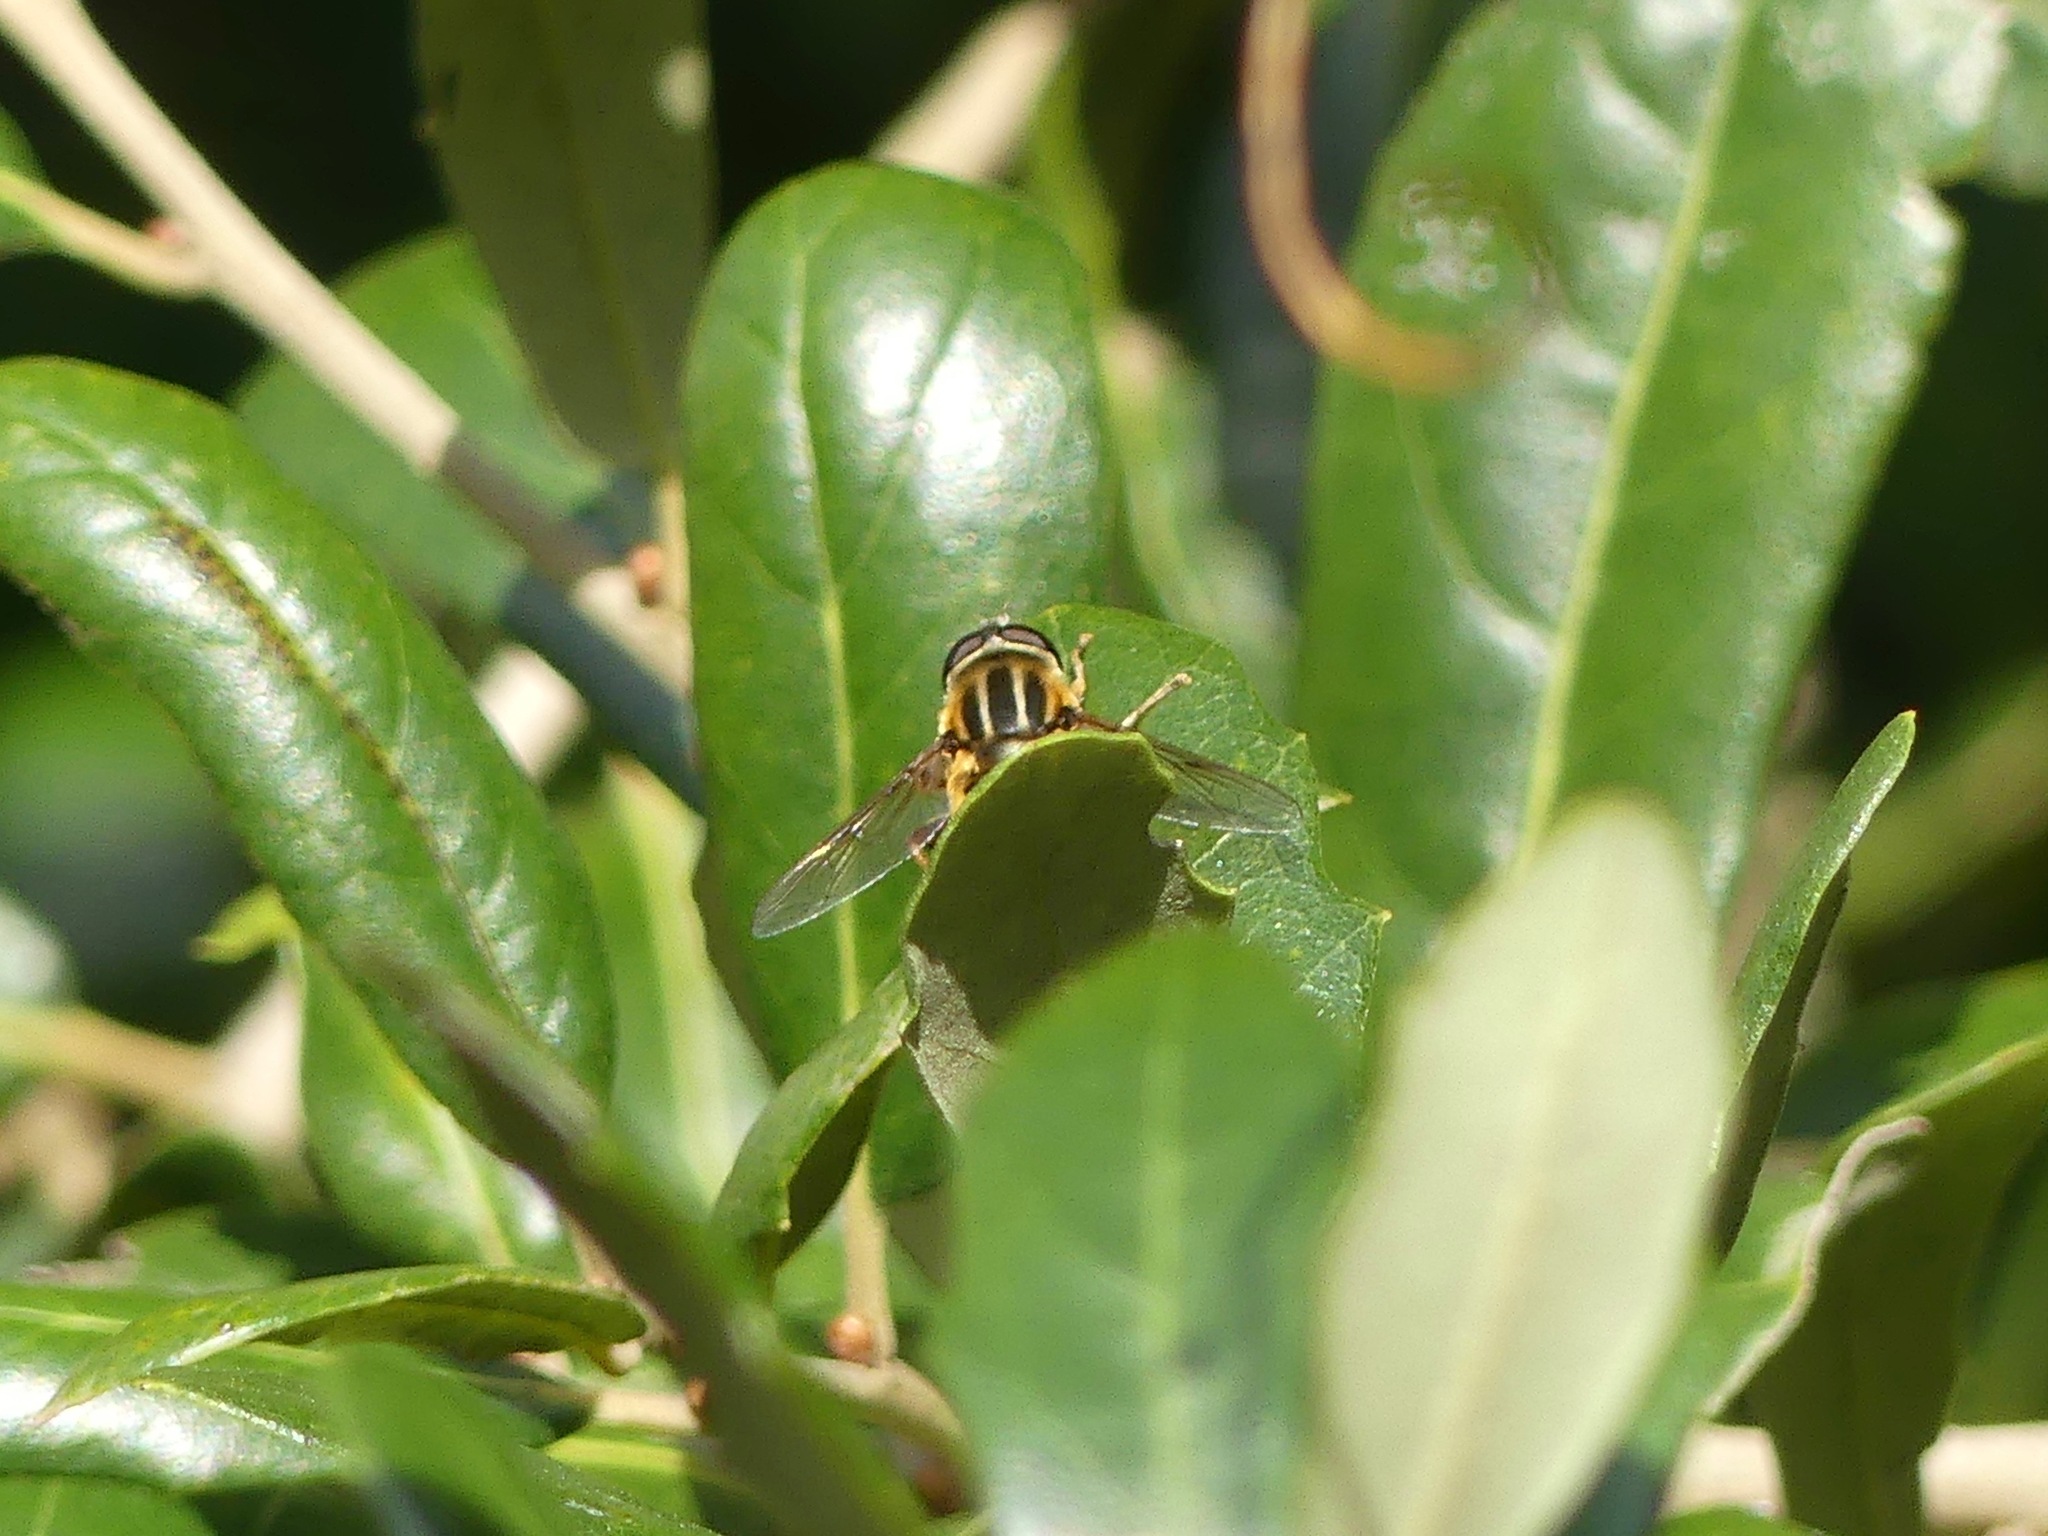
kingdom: Animalia
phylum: Arthropoda
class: Insecta
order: Diptera
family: Syrphidae
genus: Helophilus
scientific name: Helophilus fasciatus
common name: Narrow-headed marsh fly
